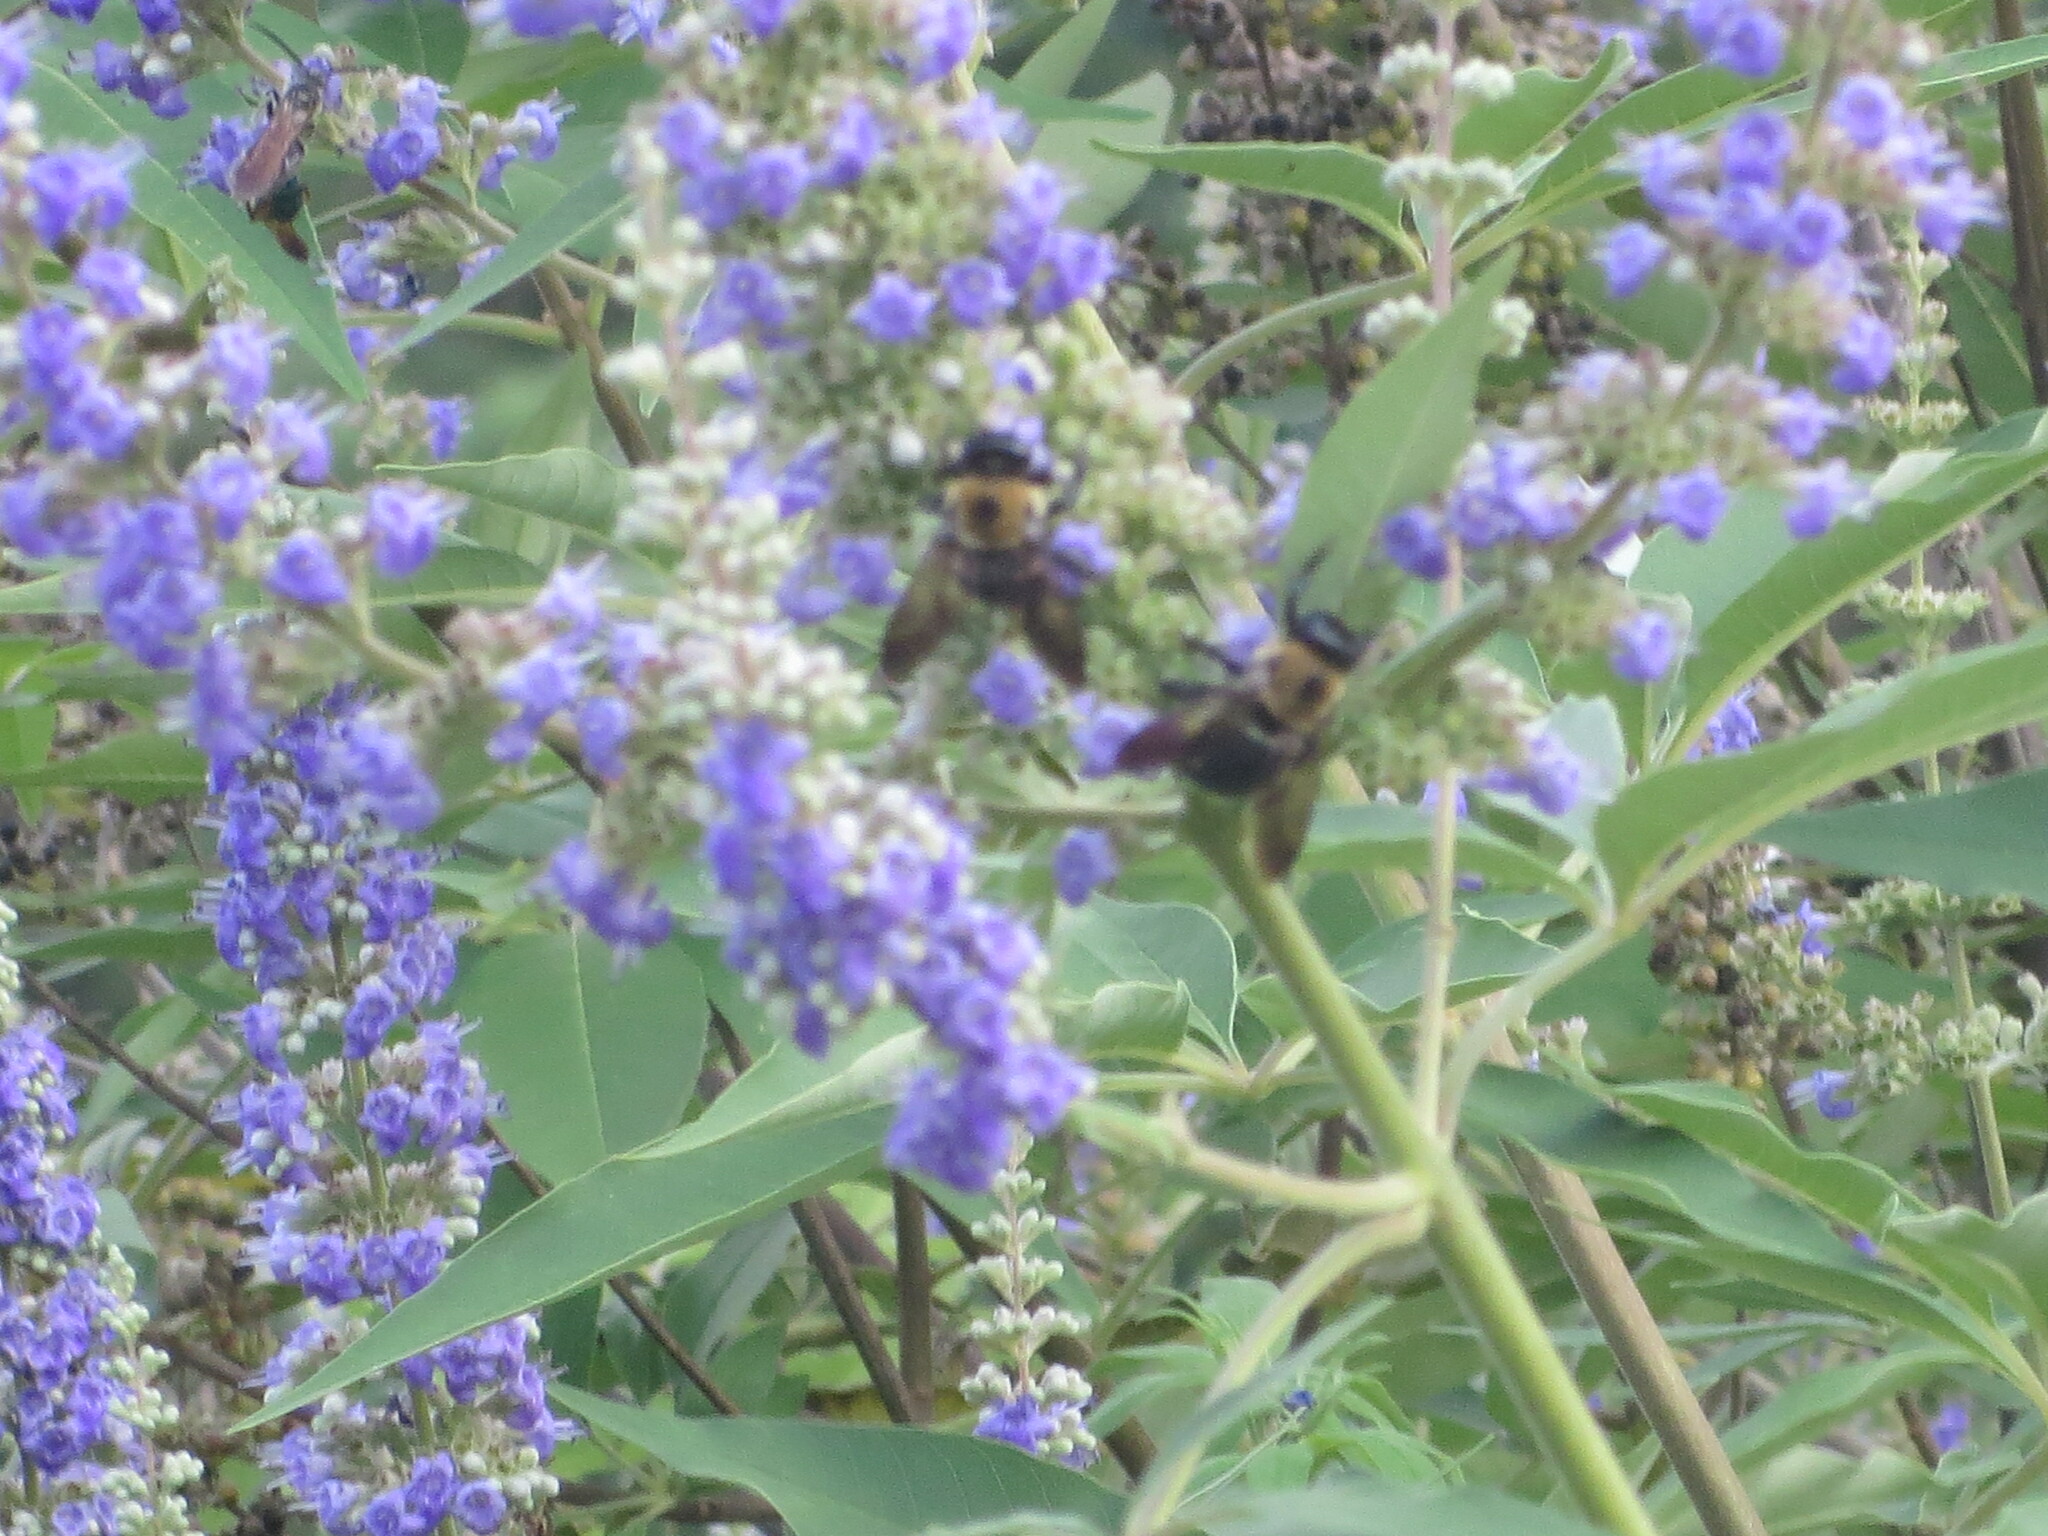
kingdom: Animalia
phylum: Arthropoda
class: Insecta
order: Hymenoptera
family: Apidae
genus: Xylocopa
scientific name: Xylocopa virginica
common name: Carpenter bee
